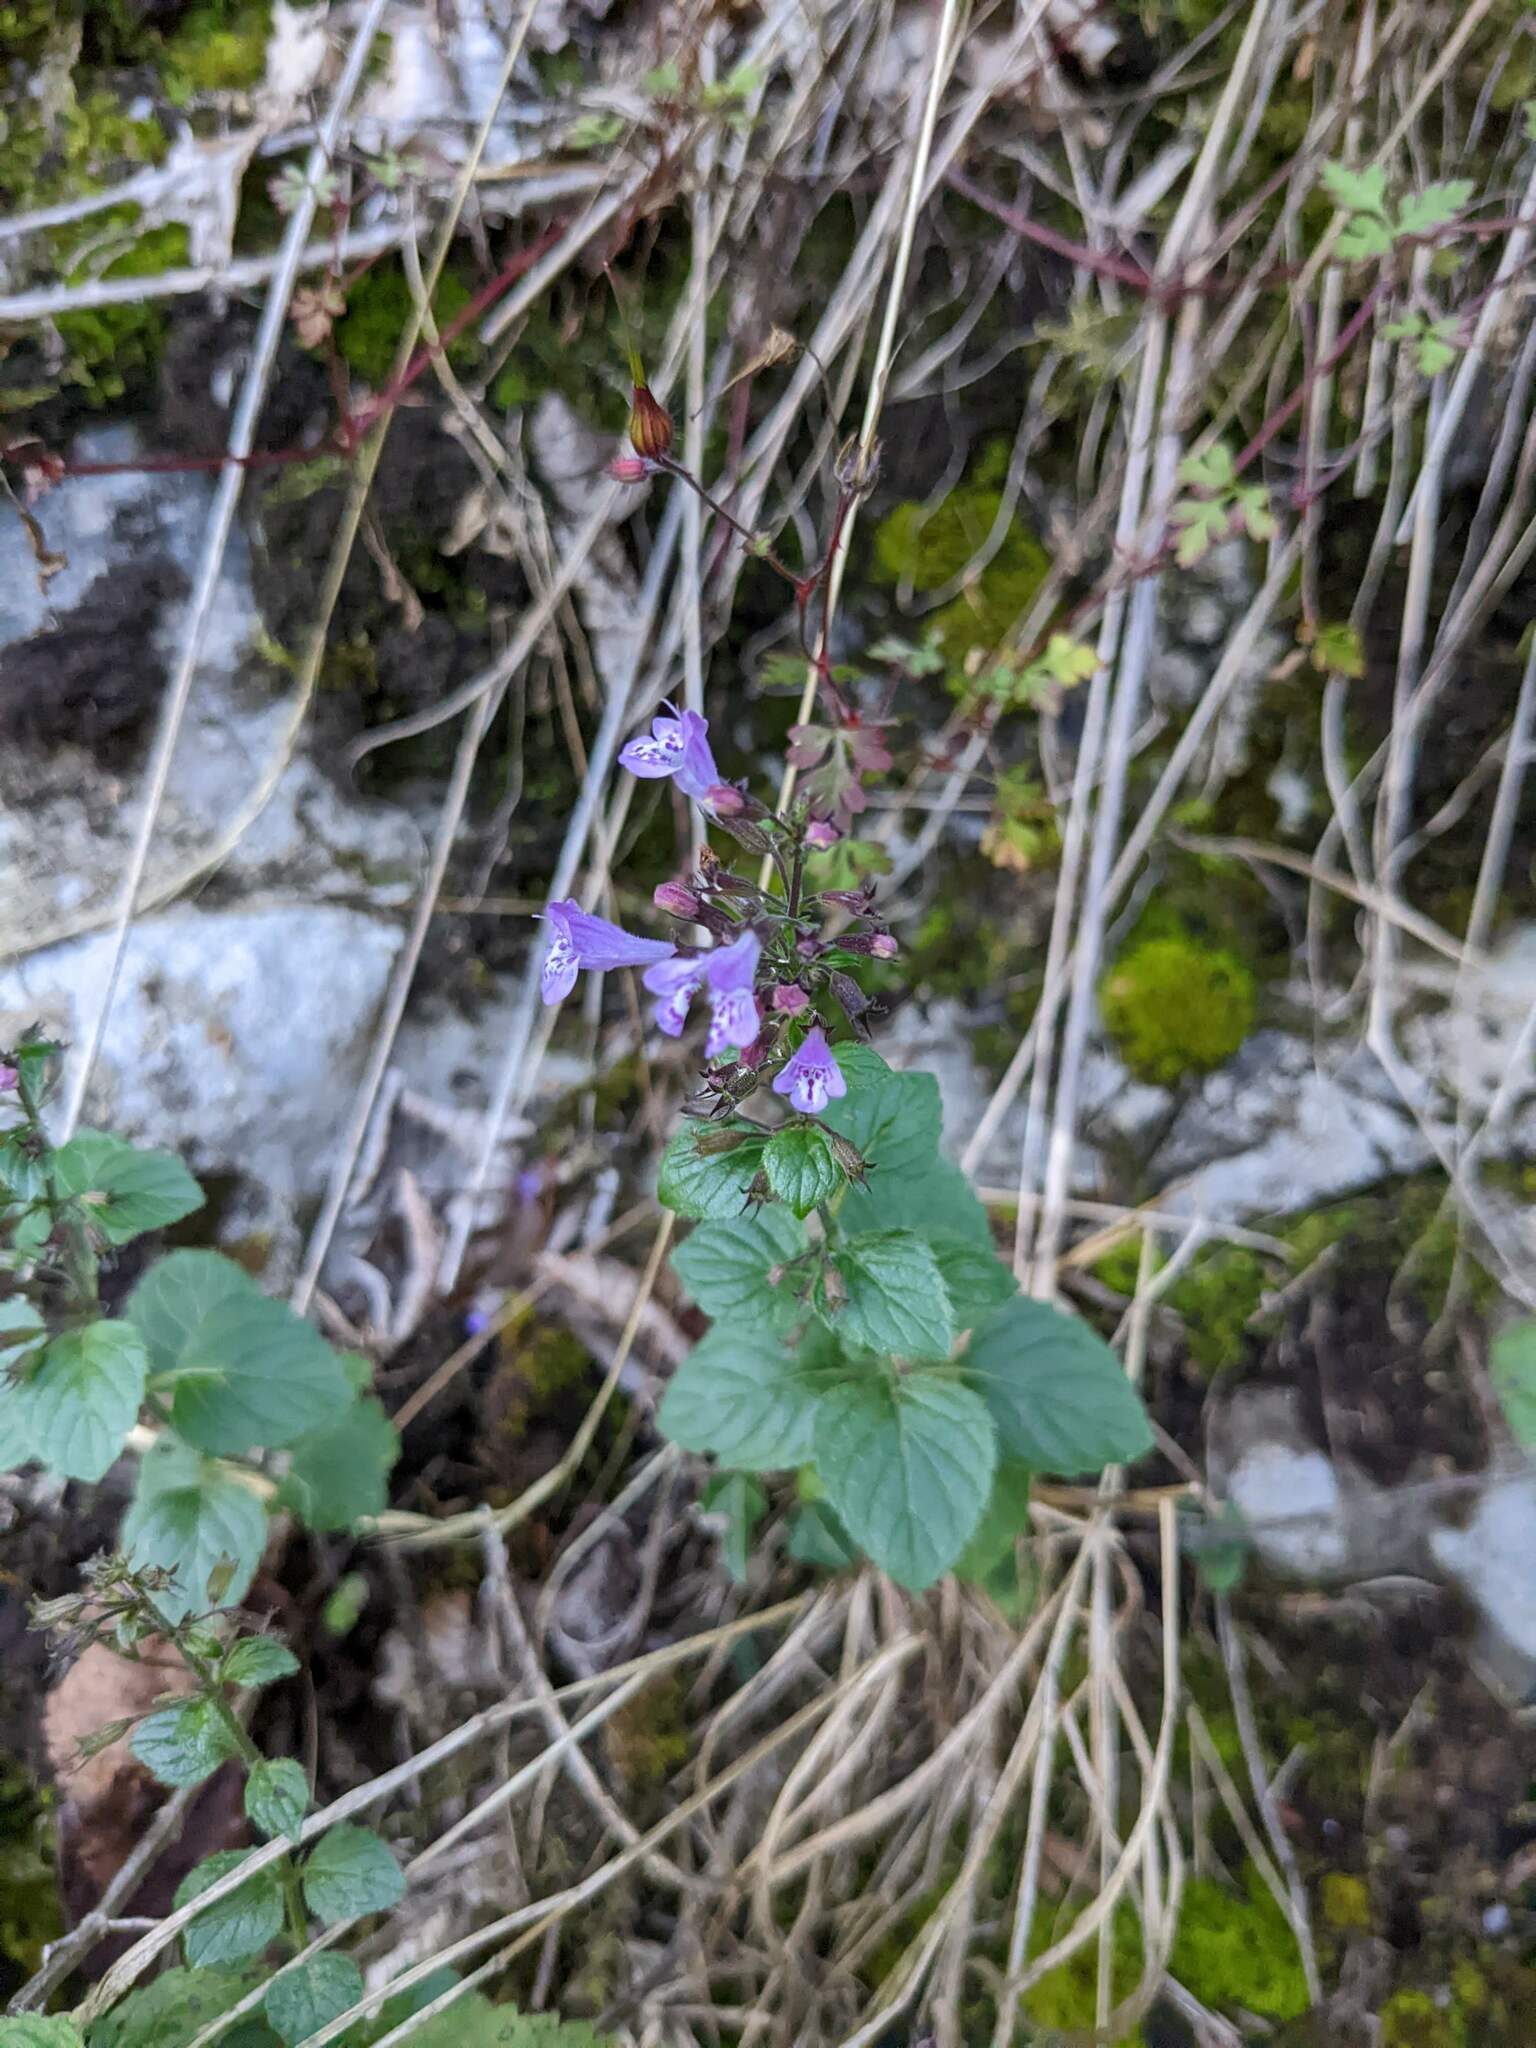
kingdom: Plantae
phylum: Tracheophyta
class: Magnoliopsida
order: Lamiales
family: Lamiaceae
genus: Clinopodium
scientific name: Clinopodium menthifolium
